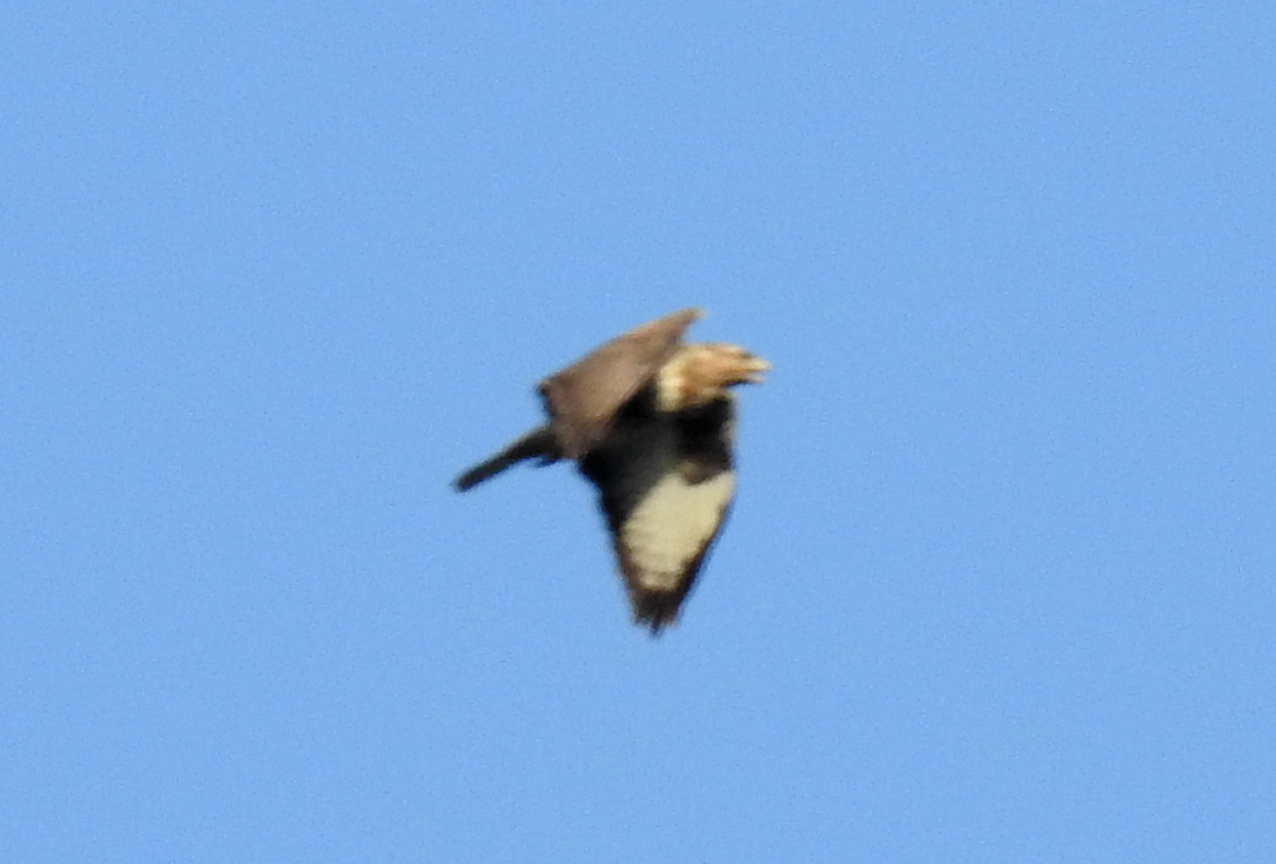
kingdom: Animalia
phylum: Chordata
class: Aves
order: Accipitriformes
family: Accipitridae
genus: Buteo
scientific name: Buteo buteo
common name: Common buzzard
